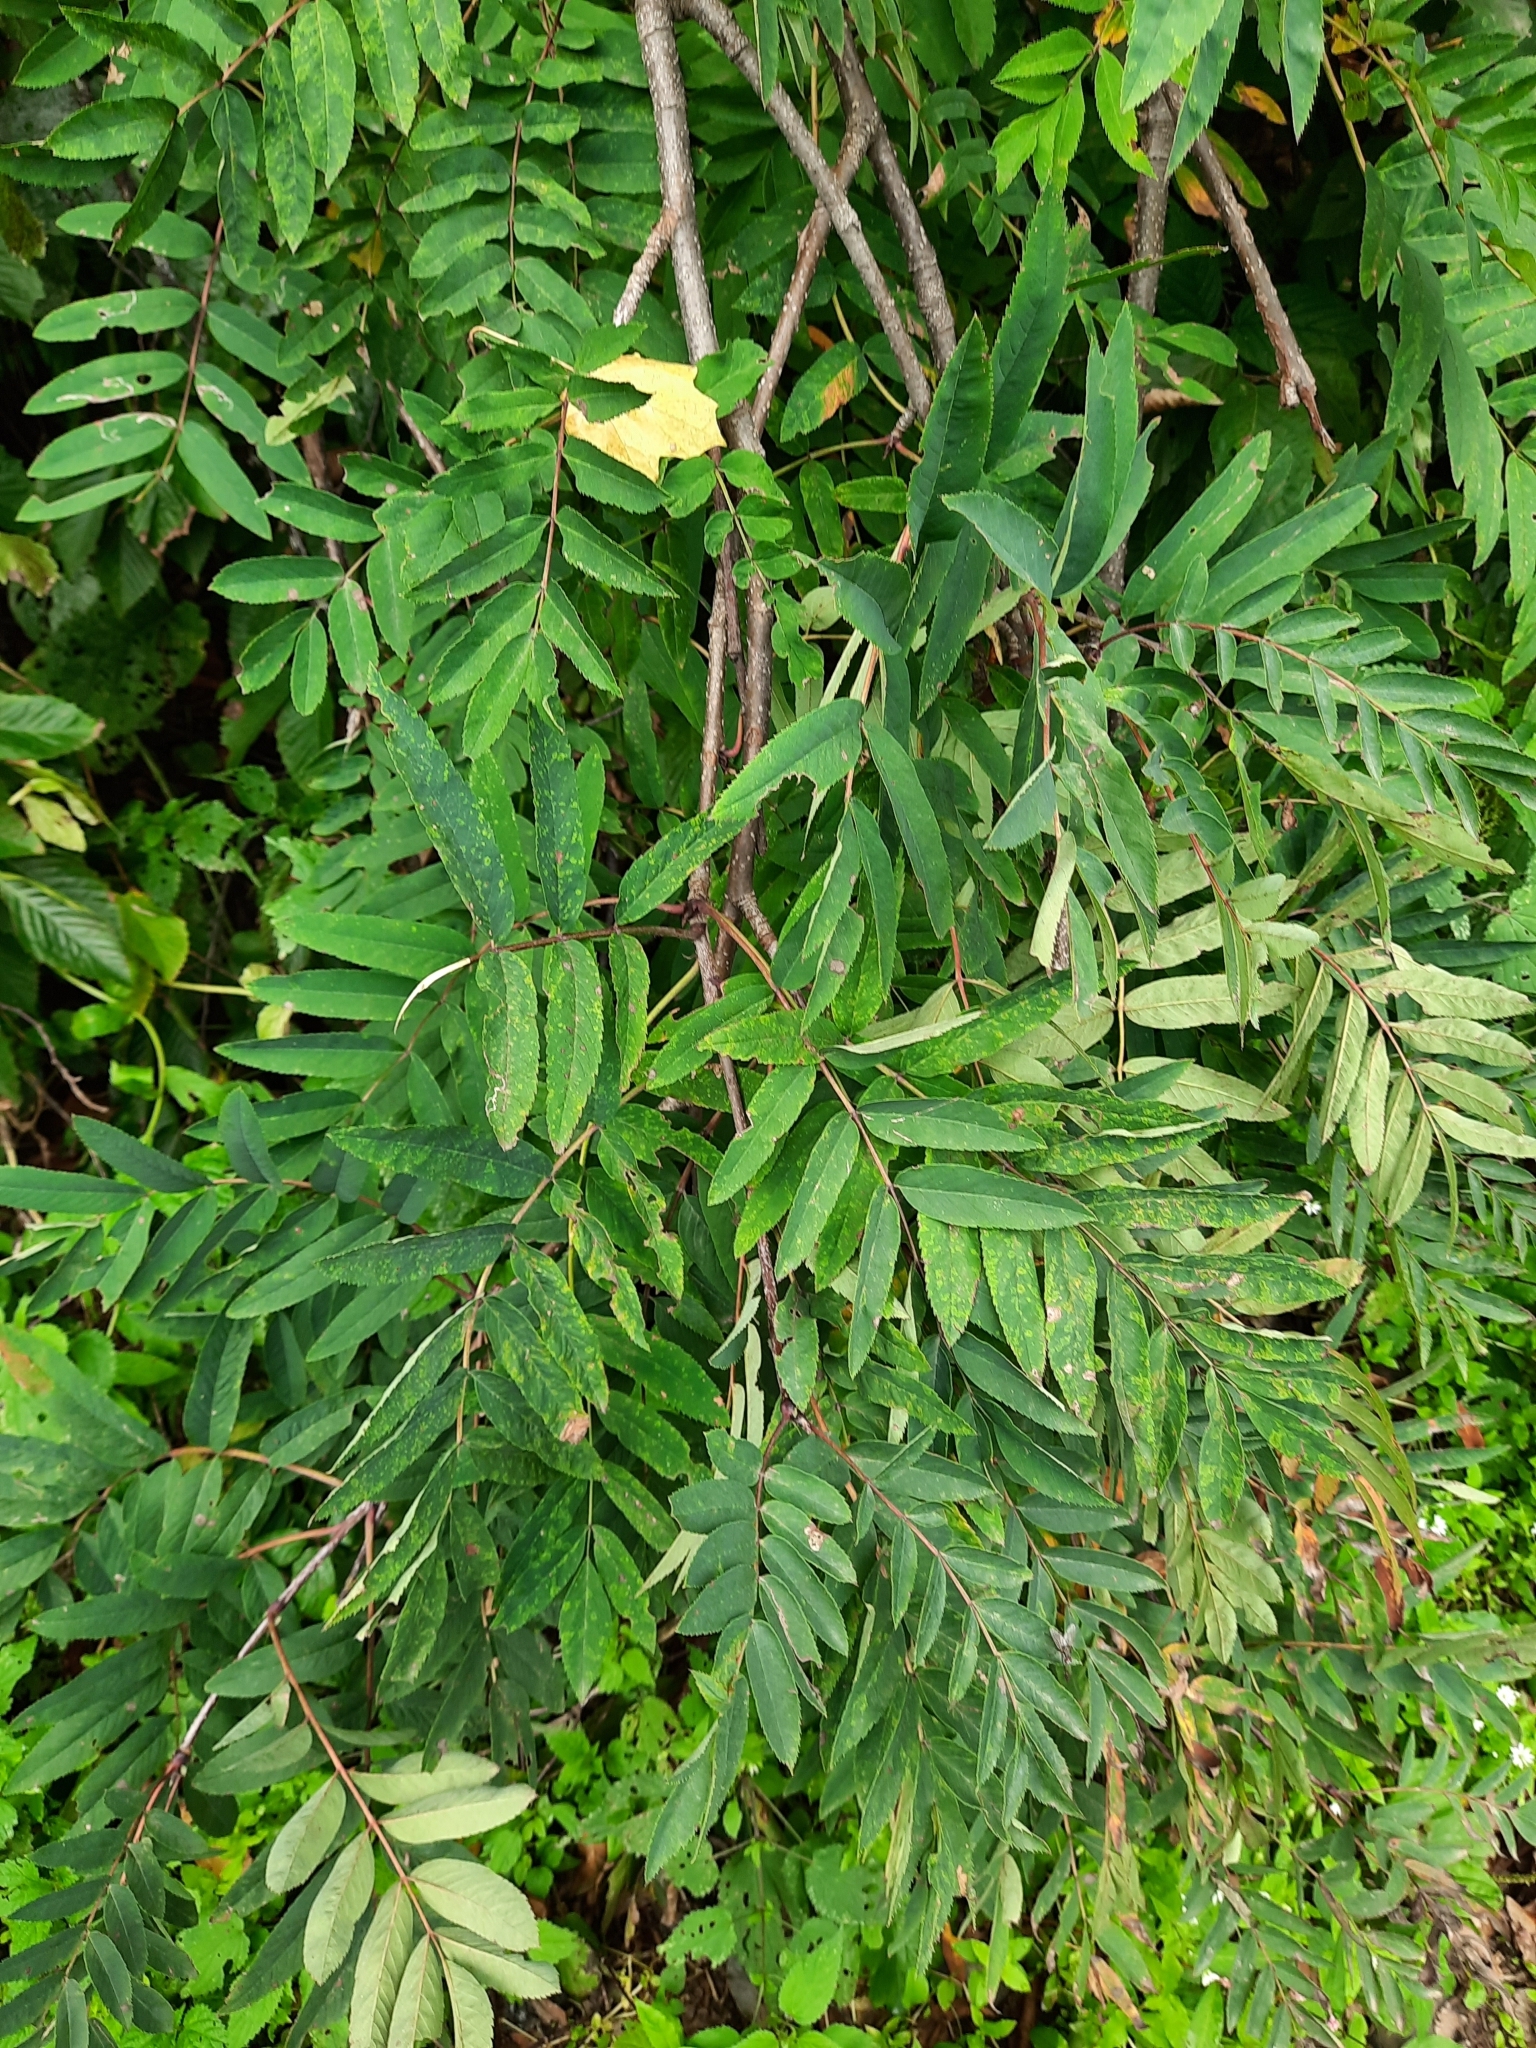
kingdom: Plantae
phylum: Tracheophyta
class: Magnoliopsida
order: Rosales
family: Rosaceae
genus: Sorbus
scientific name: Sorbus aucuparia
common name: Rowan
